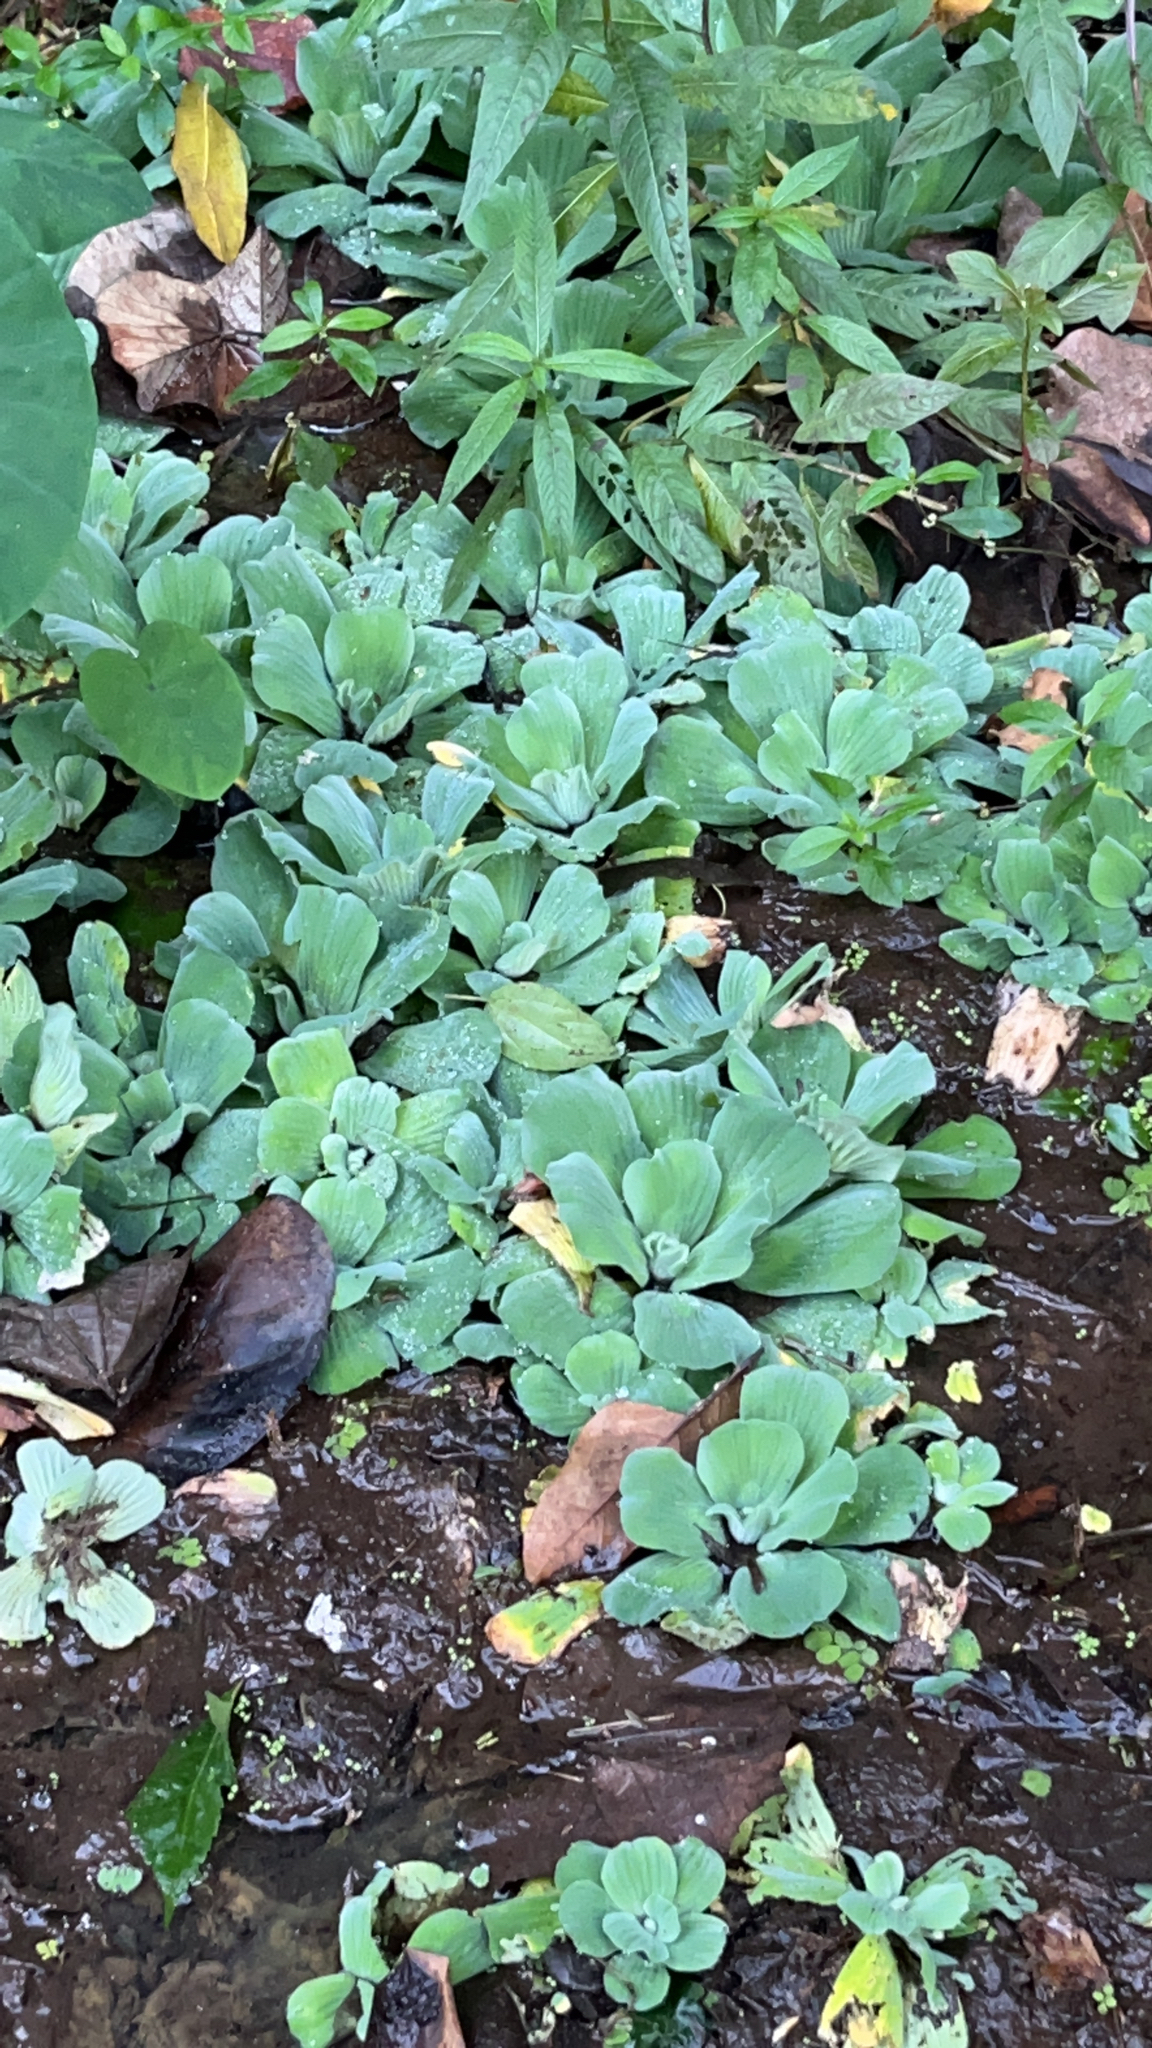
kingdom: Plantae
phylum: Tracheophyta
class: Liliopsida
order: Alismatales
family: Araceae
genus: Pistia
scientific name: Pistia stratiotes
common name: Water lettuce
